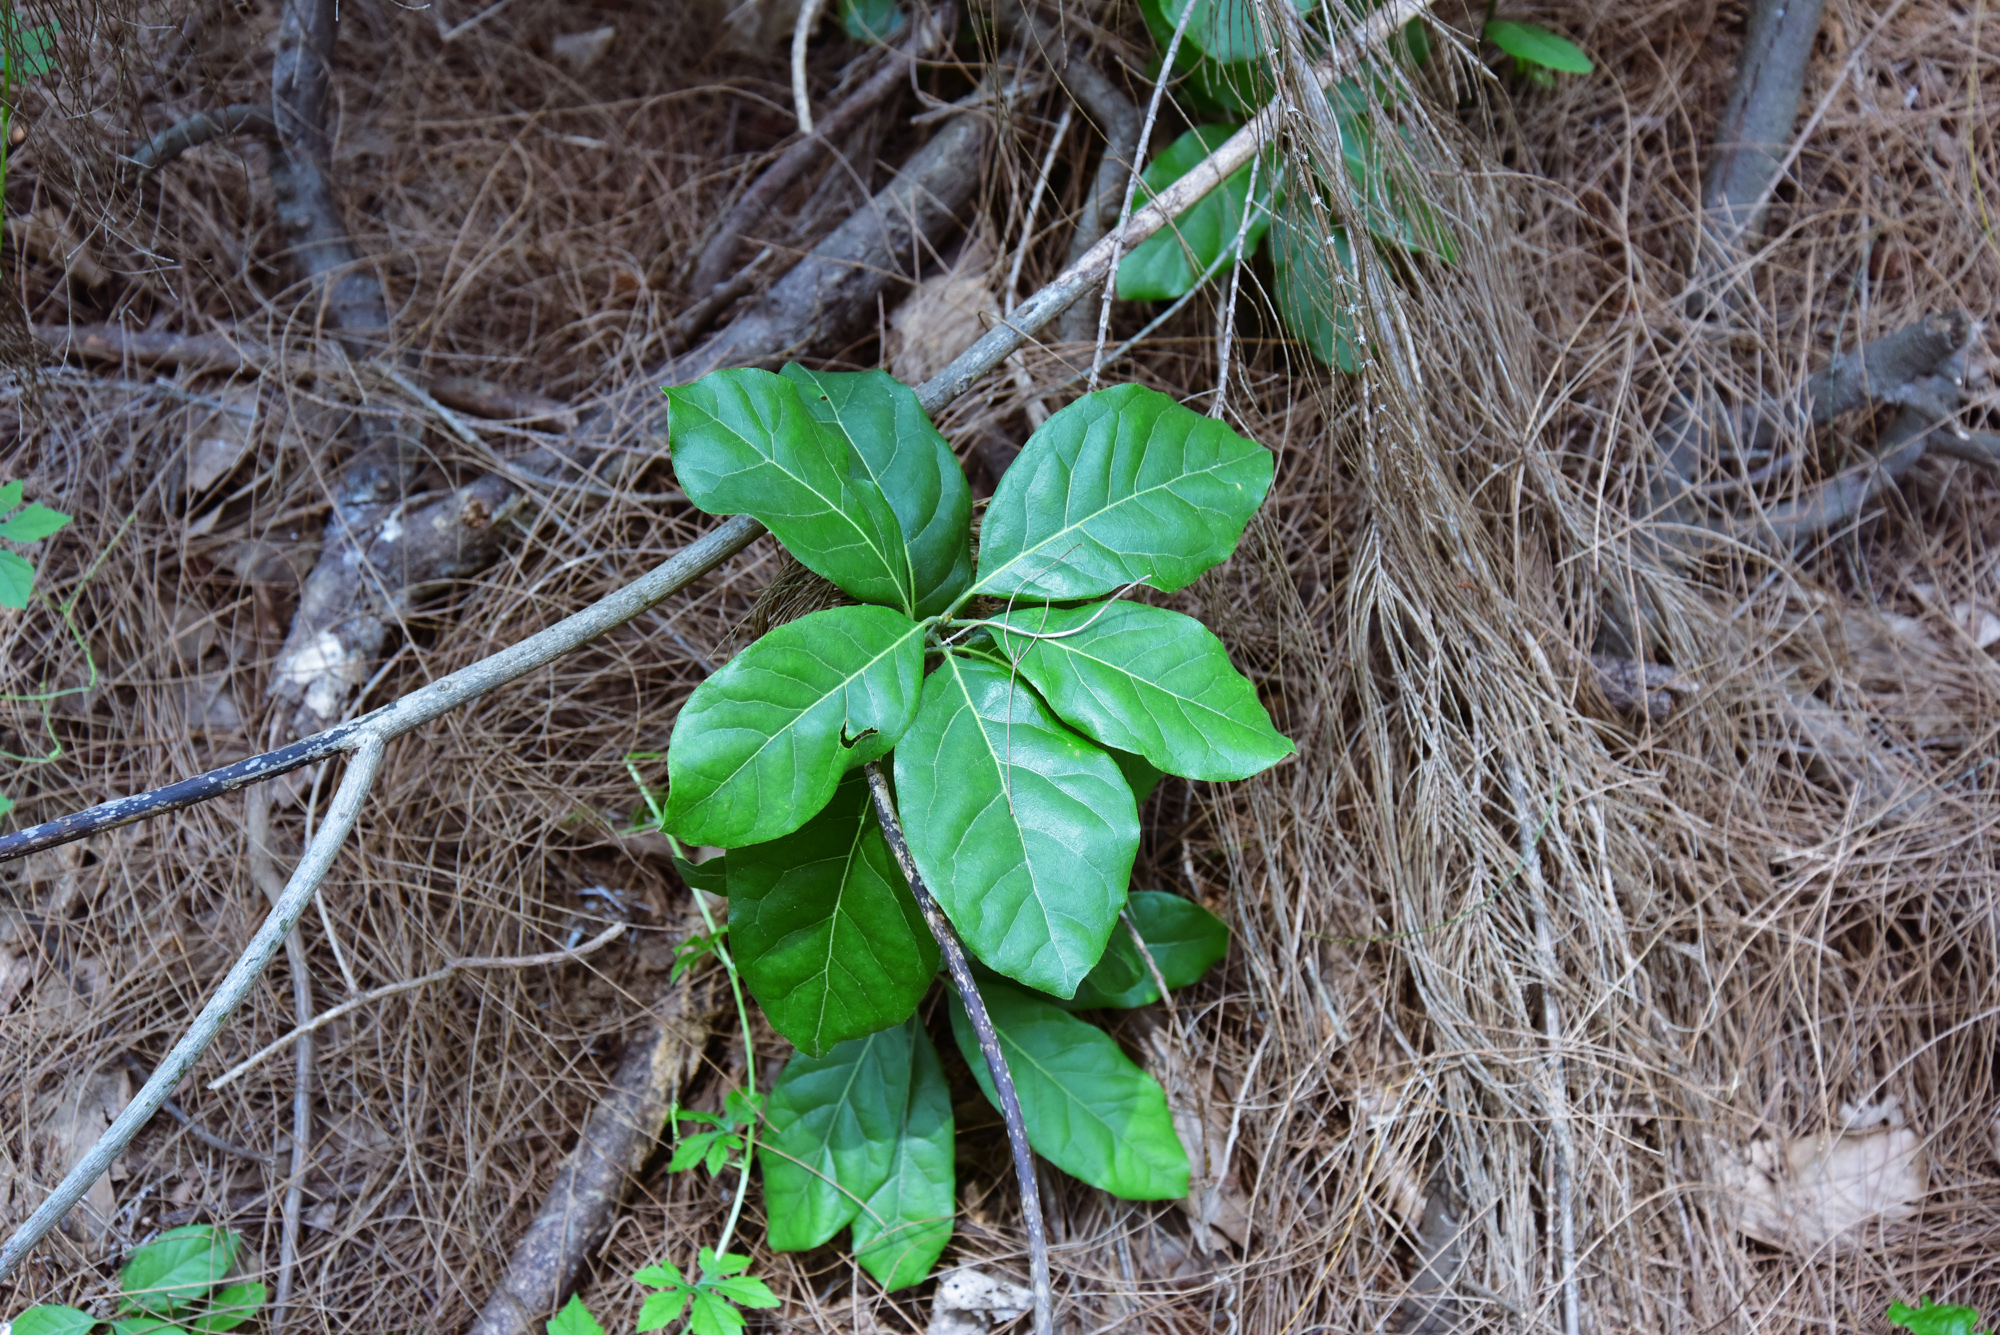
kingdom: Plantae
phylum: Tracheophyta
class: Magnoliopsida
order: Laurales
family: Lauraceae
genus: Litsea
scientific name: Litsea glutinosa
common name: Indian-laurel
